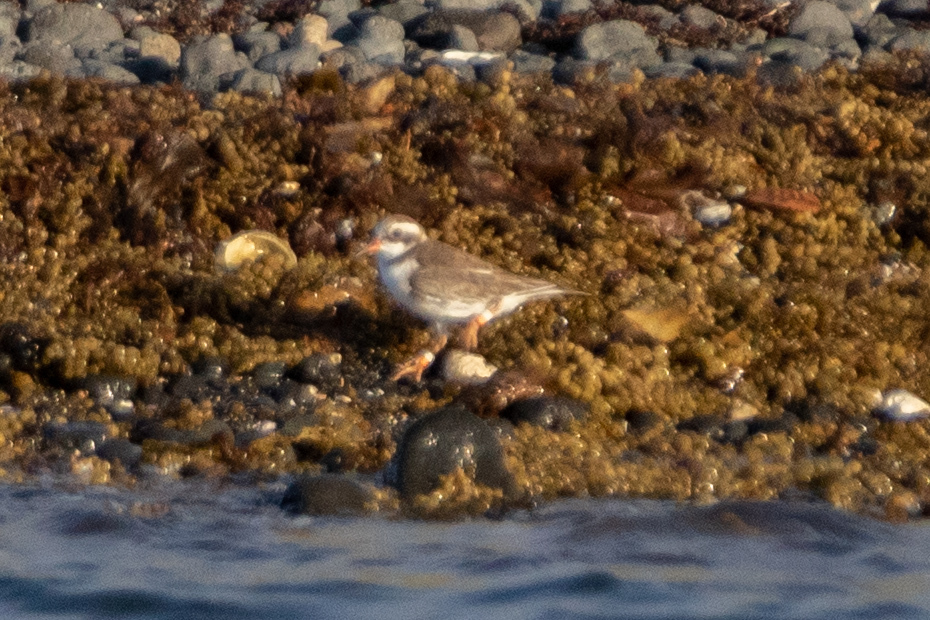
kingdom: Animalia
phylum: Chordata
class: Aves
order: Charadriiformes
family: Charadriidae
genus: Thinornis
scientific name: Thinornis novaeseelandiae
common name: Shore dotterel
